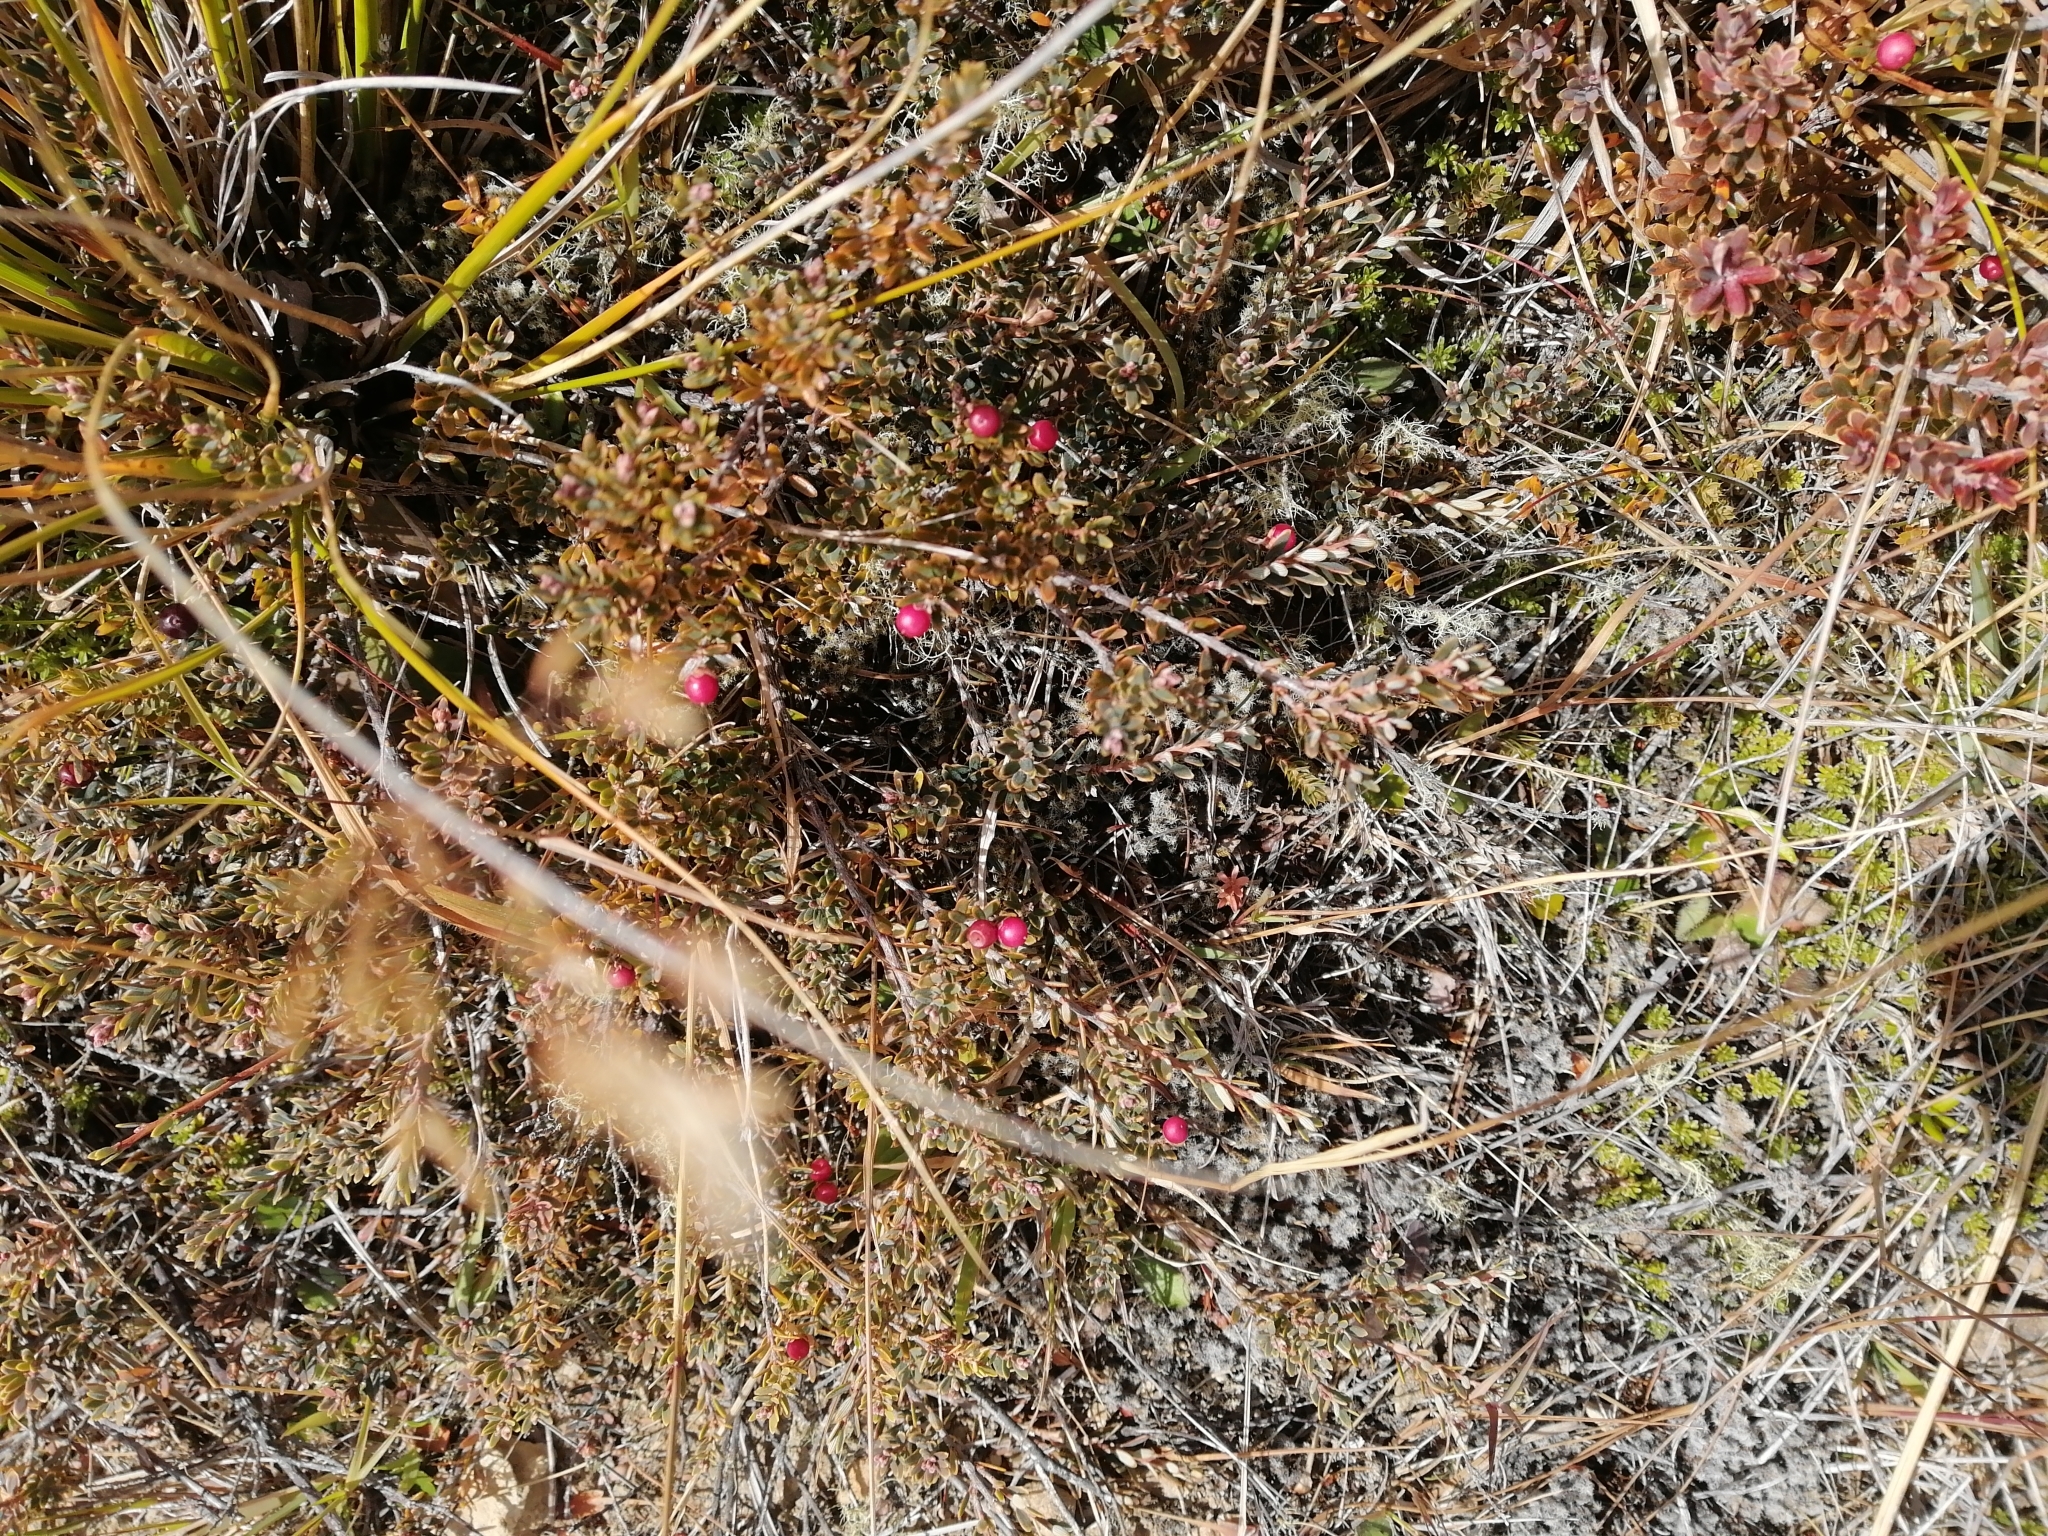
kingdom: Plantae
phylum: Tracheophyta
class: Magnoliopsida
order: Ericales
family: Ericaceae
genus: Acrothamnus
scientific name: Acrothamnus colensoi
